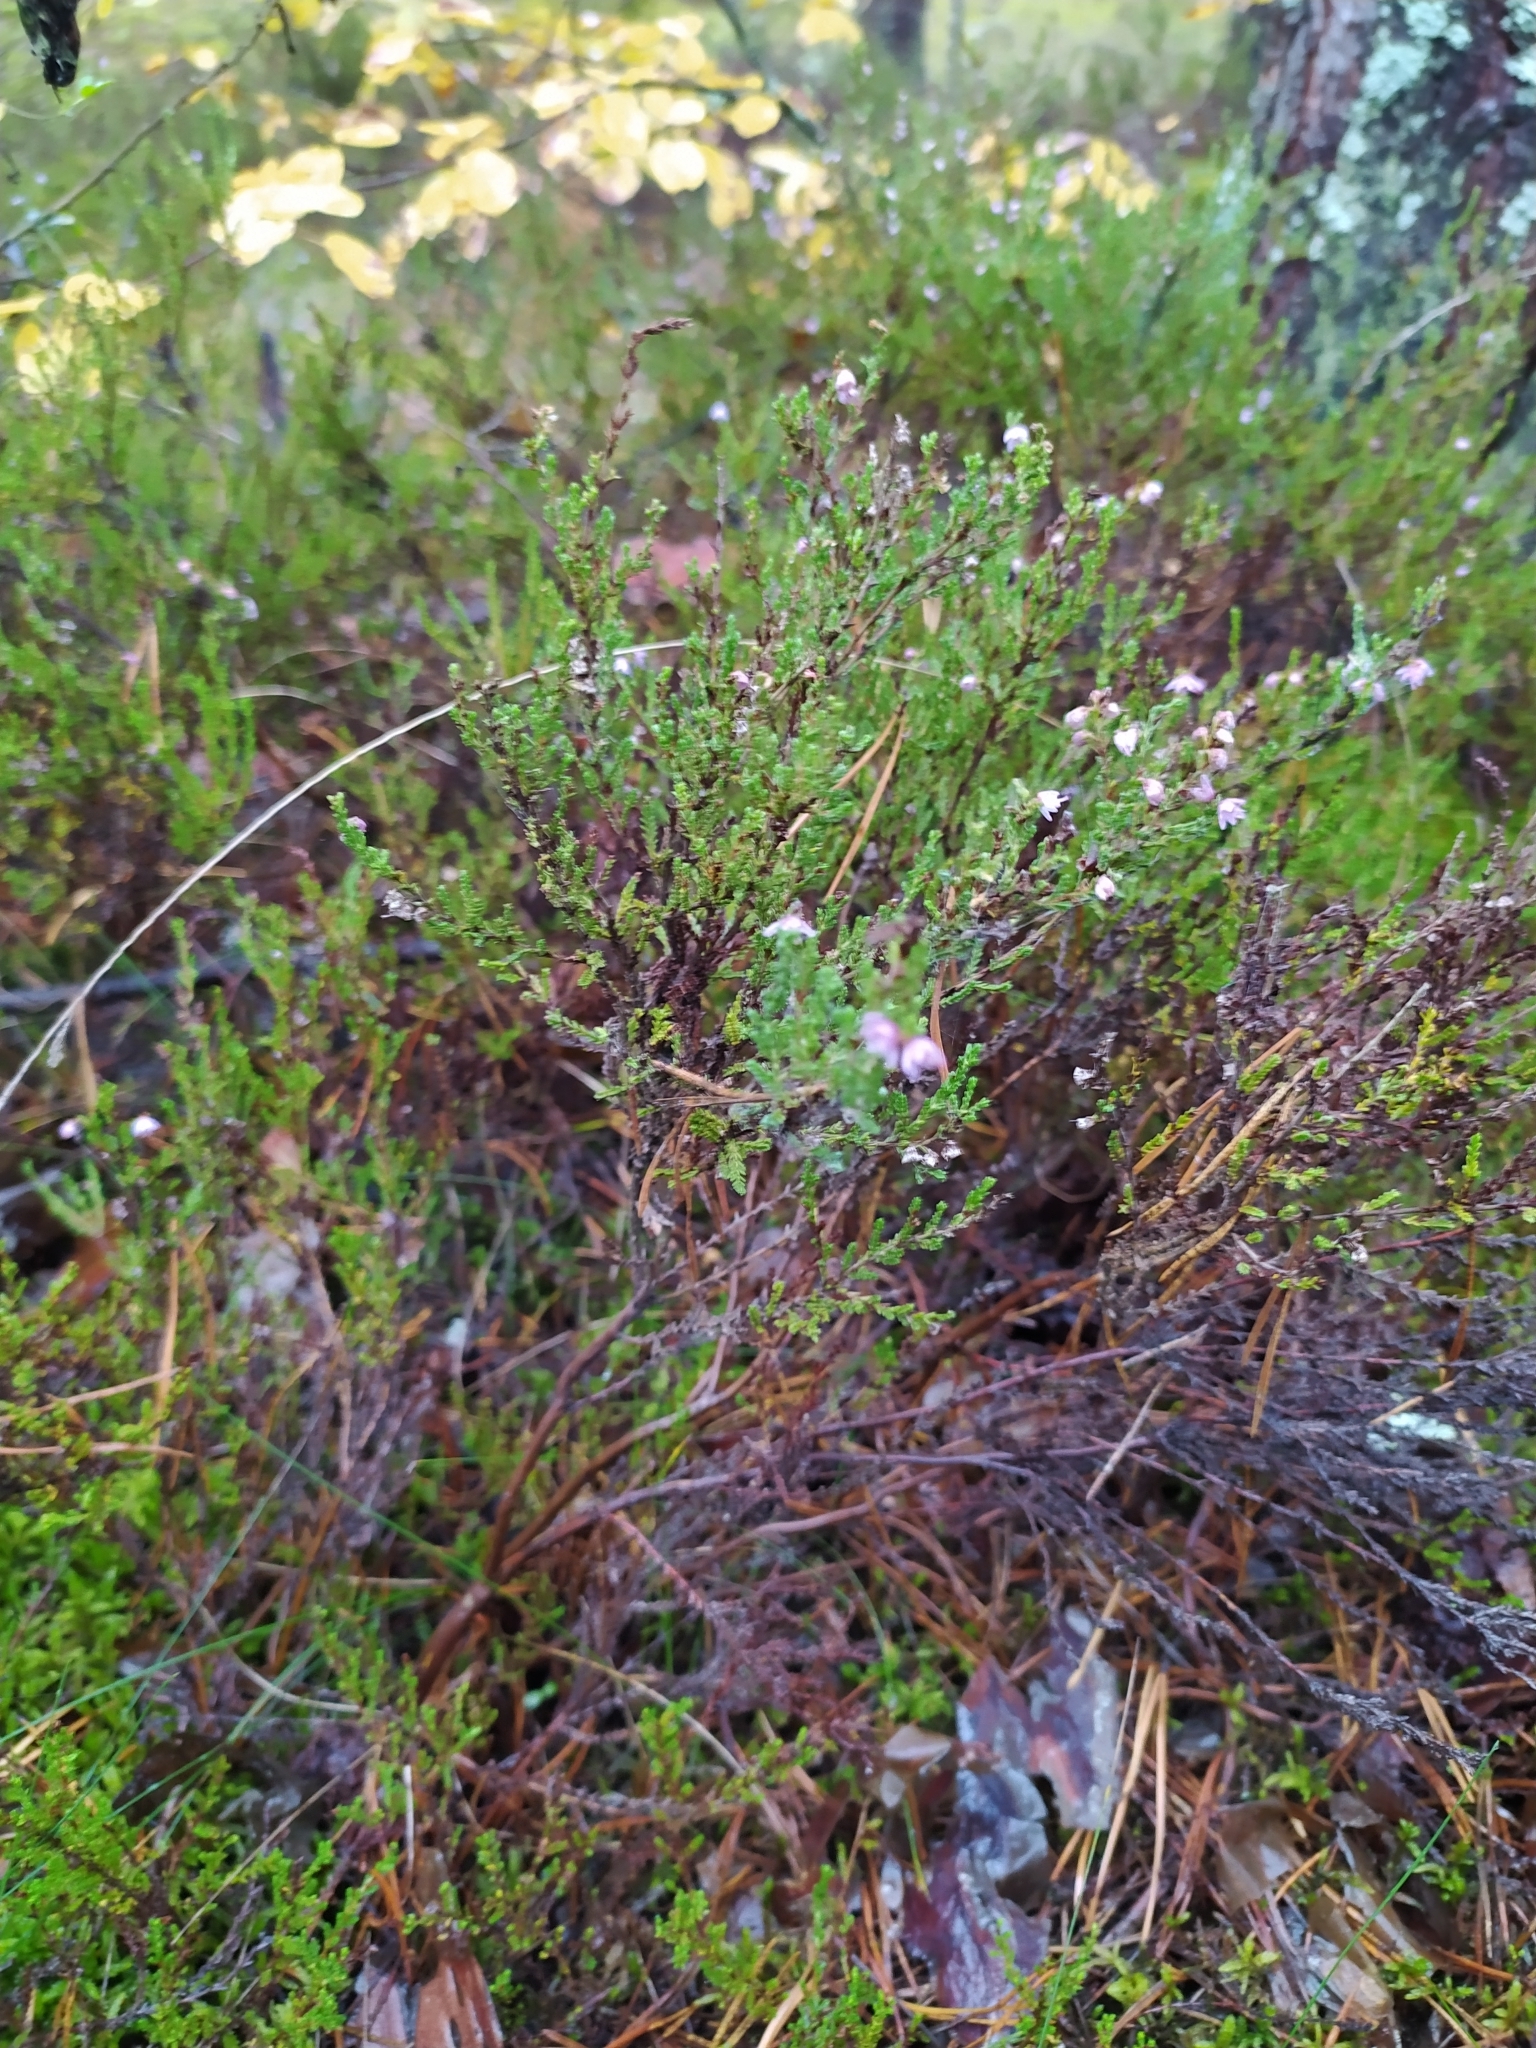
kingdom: Plantae
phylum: Tracheophyta
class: Magnoliopsida
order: Ericales
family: Ericaceae
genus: Calluna
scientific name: Calluna vulgaris
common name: Heather
